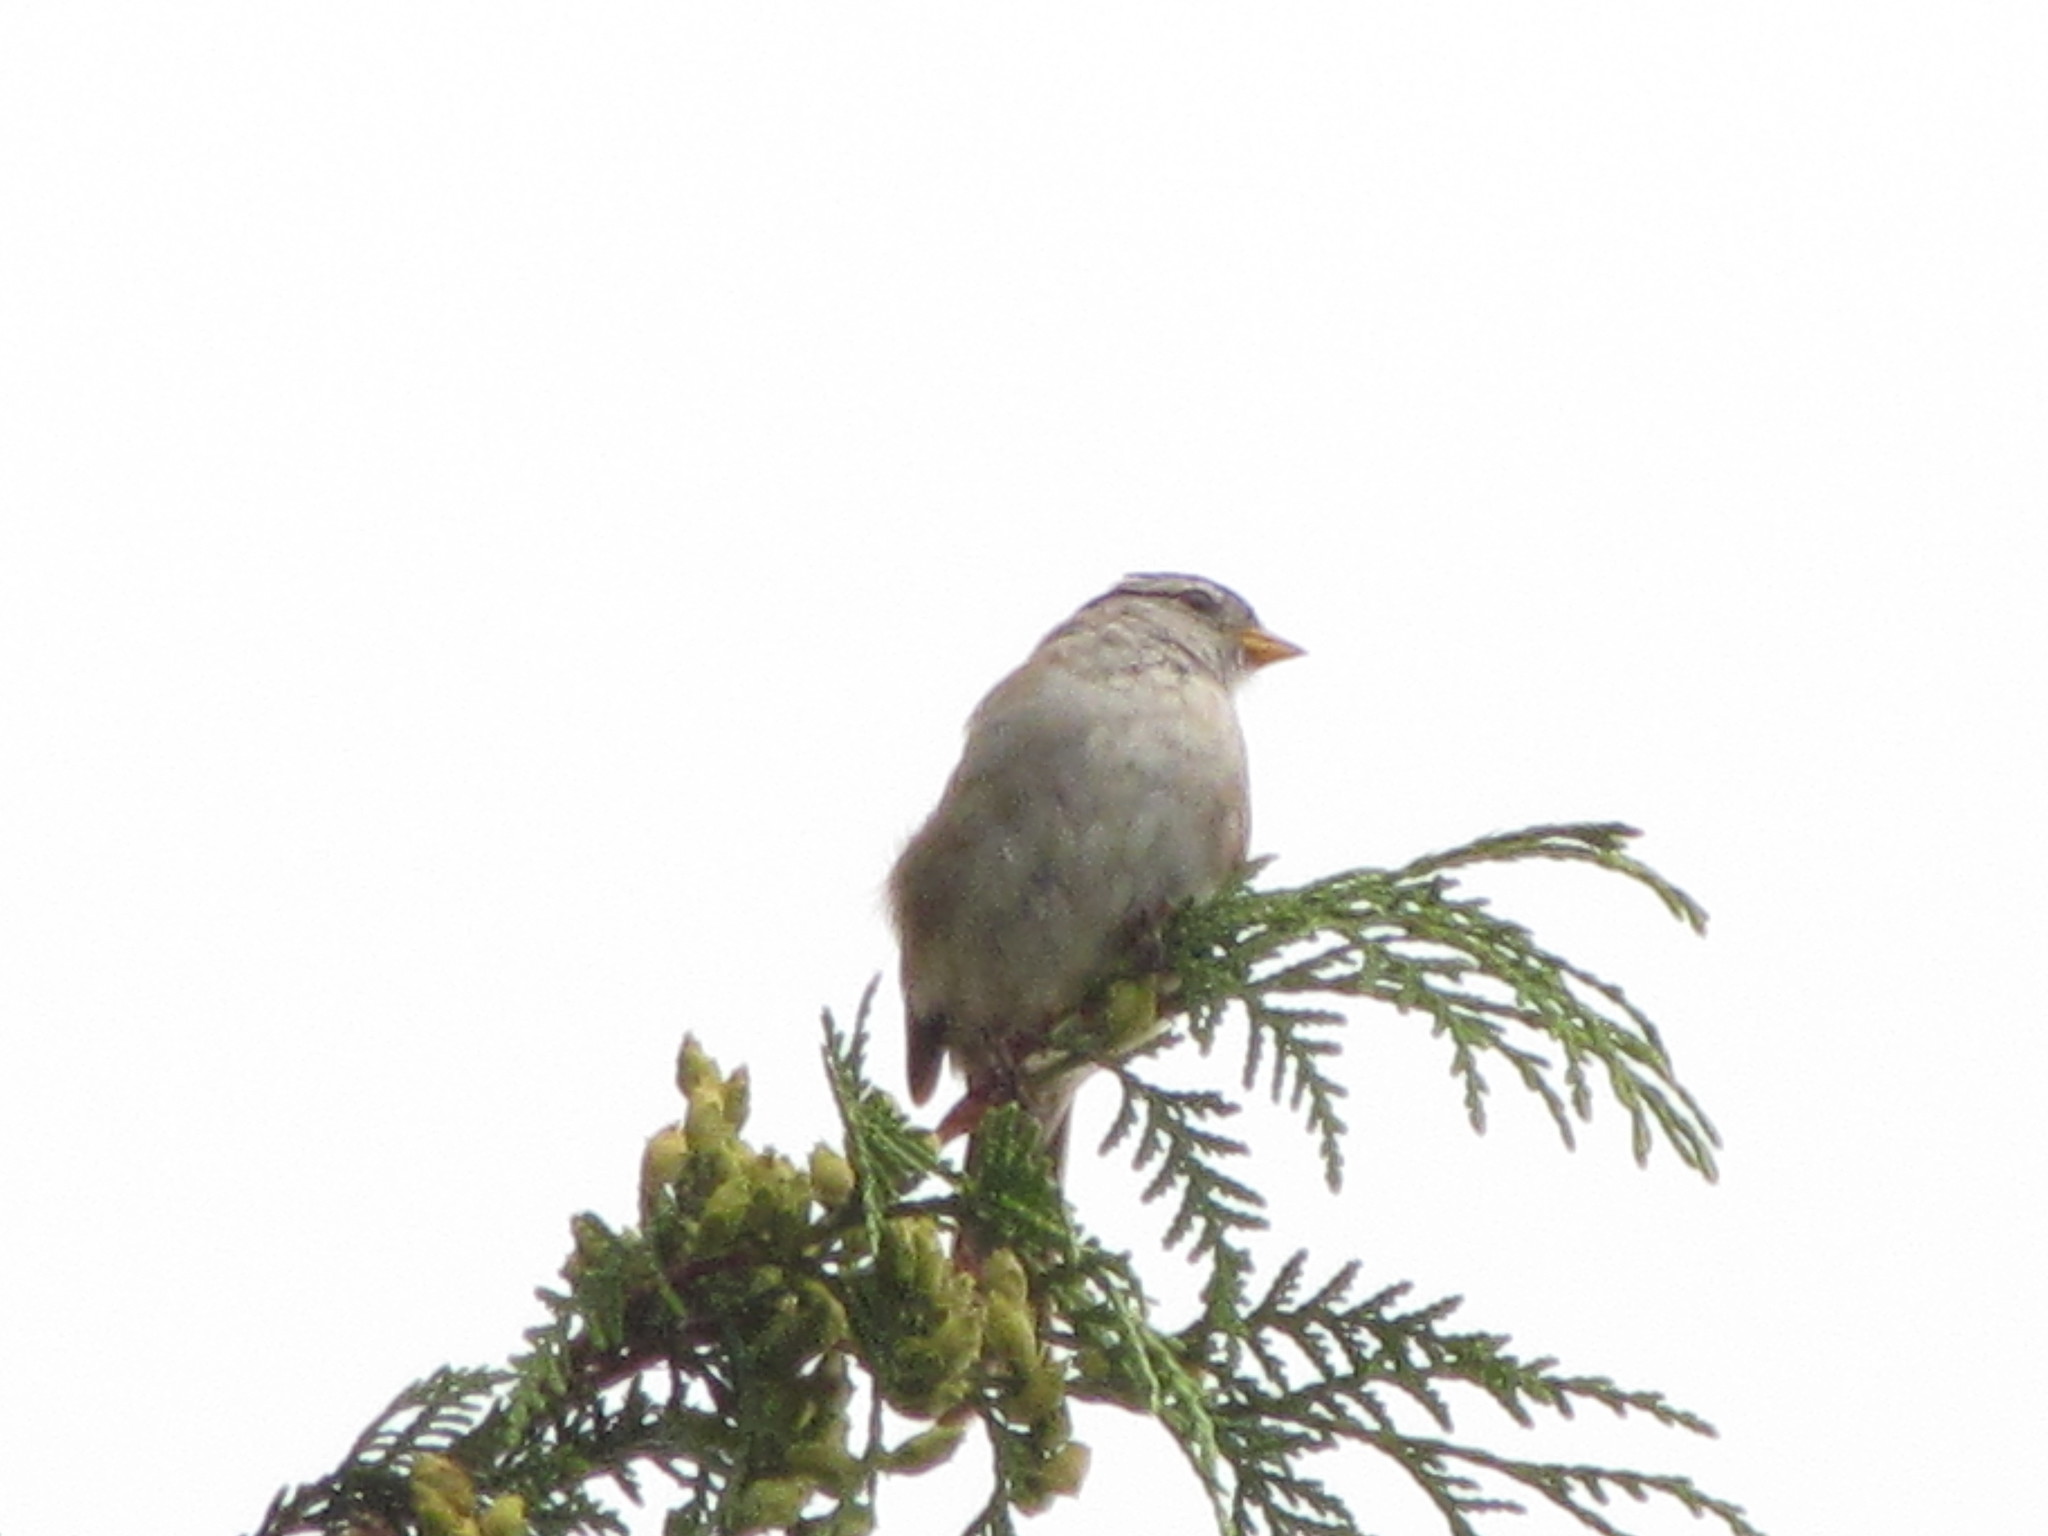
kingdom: Animalia
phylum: Chordata
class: Aves
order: Passeriformes
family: Passerellidae
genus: Zonotrichia
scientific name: Zonotrichia leucophrys
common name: White-crowned sparrow
